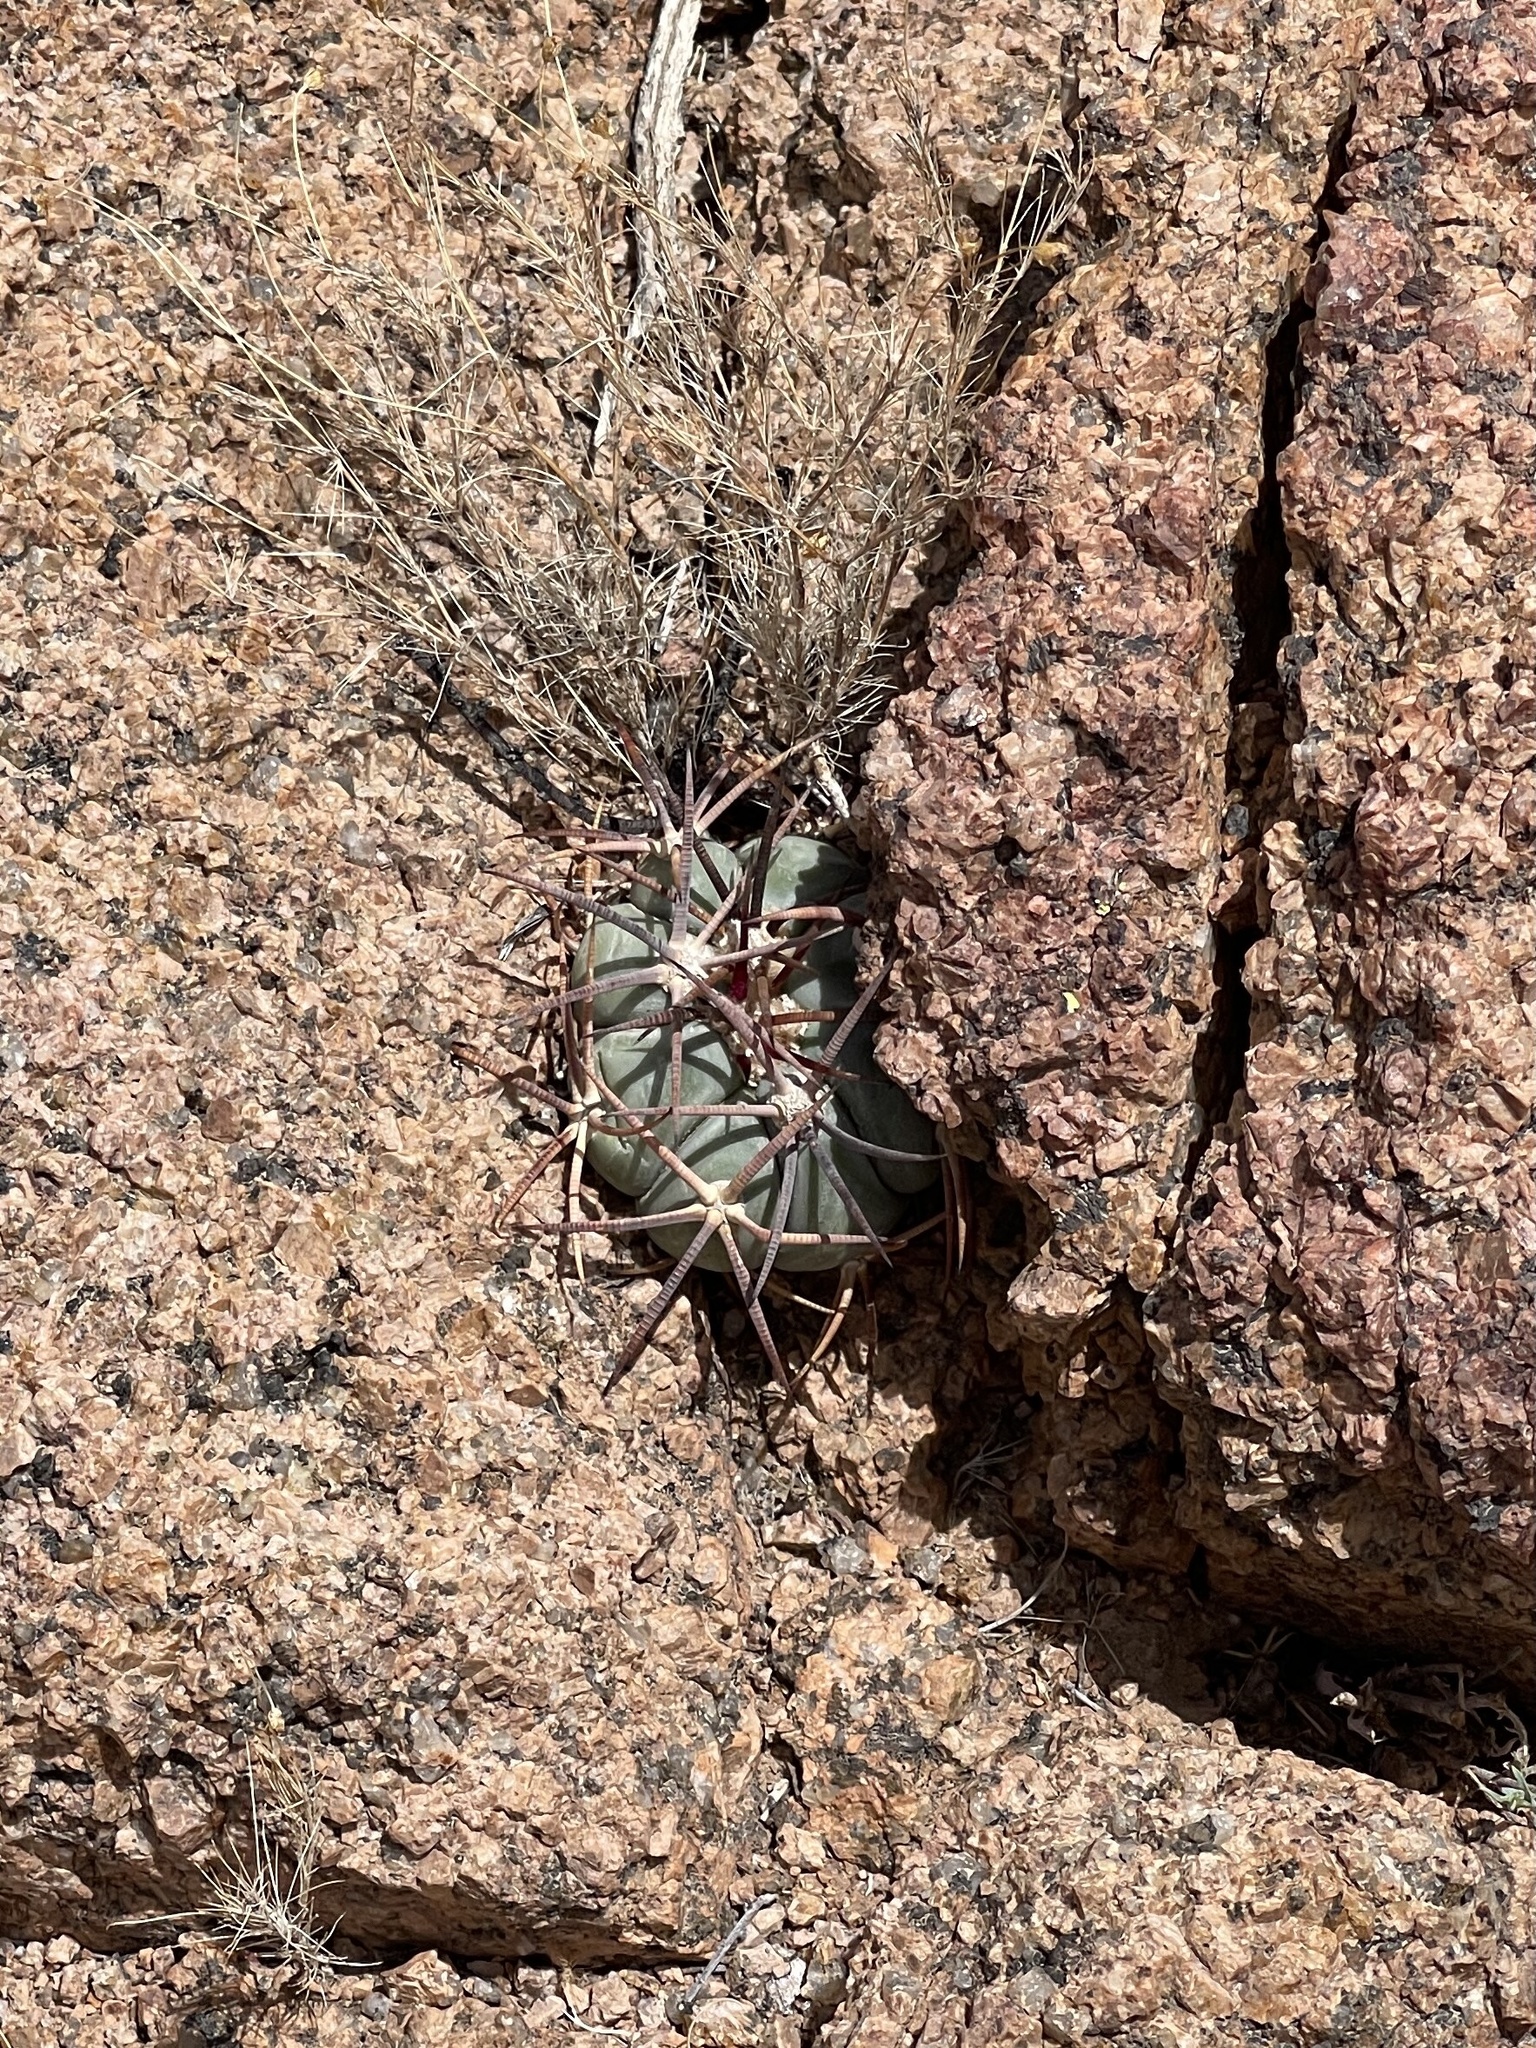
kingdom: Plantae
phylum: Tracheophyta
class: Magnoliopsida
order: Caryophyllales
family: Cactaceae
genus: Echinocactus
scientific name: Echinocactus horizonthalonius
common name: Devilshead
